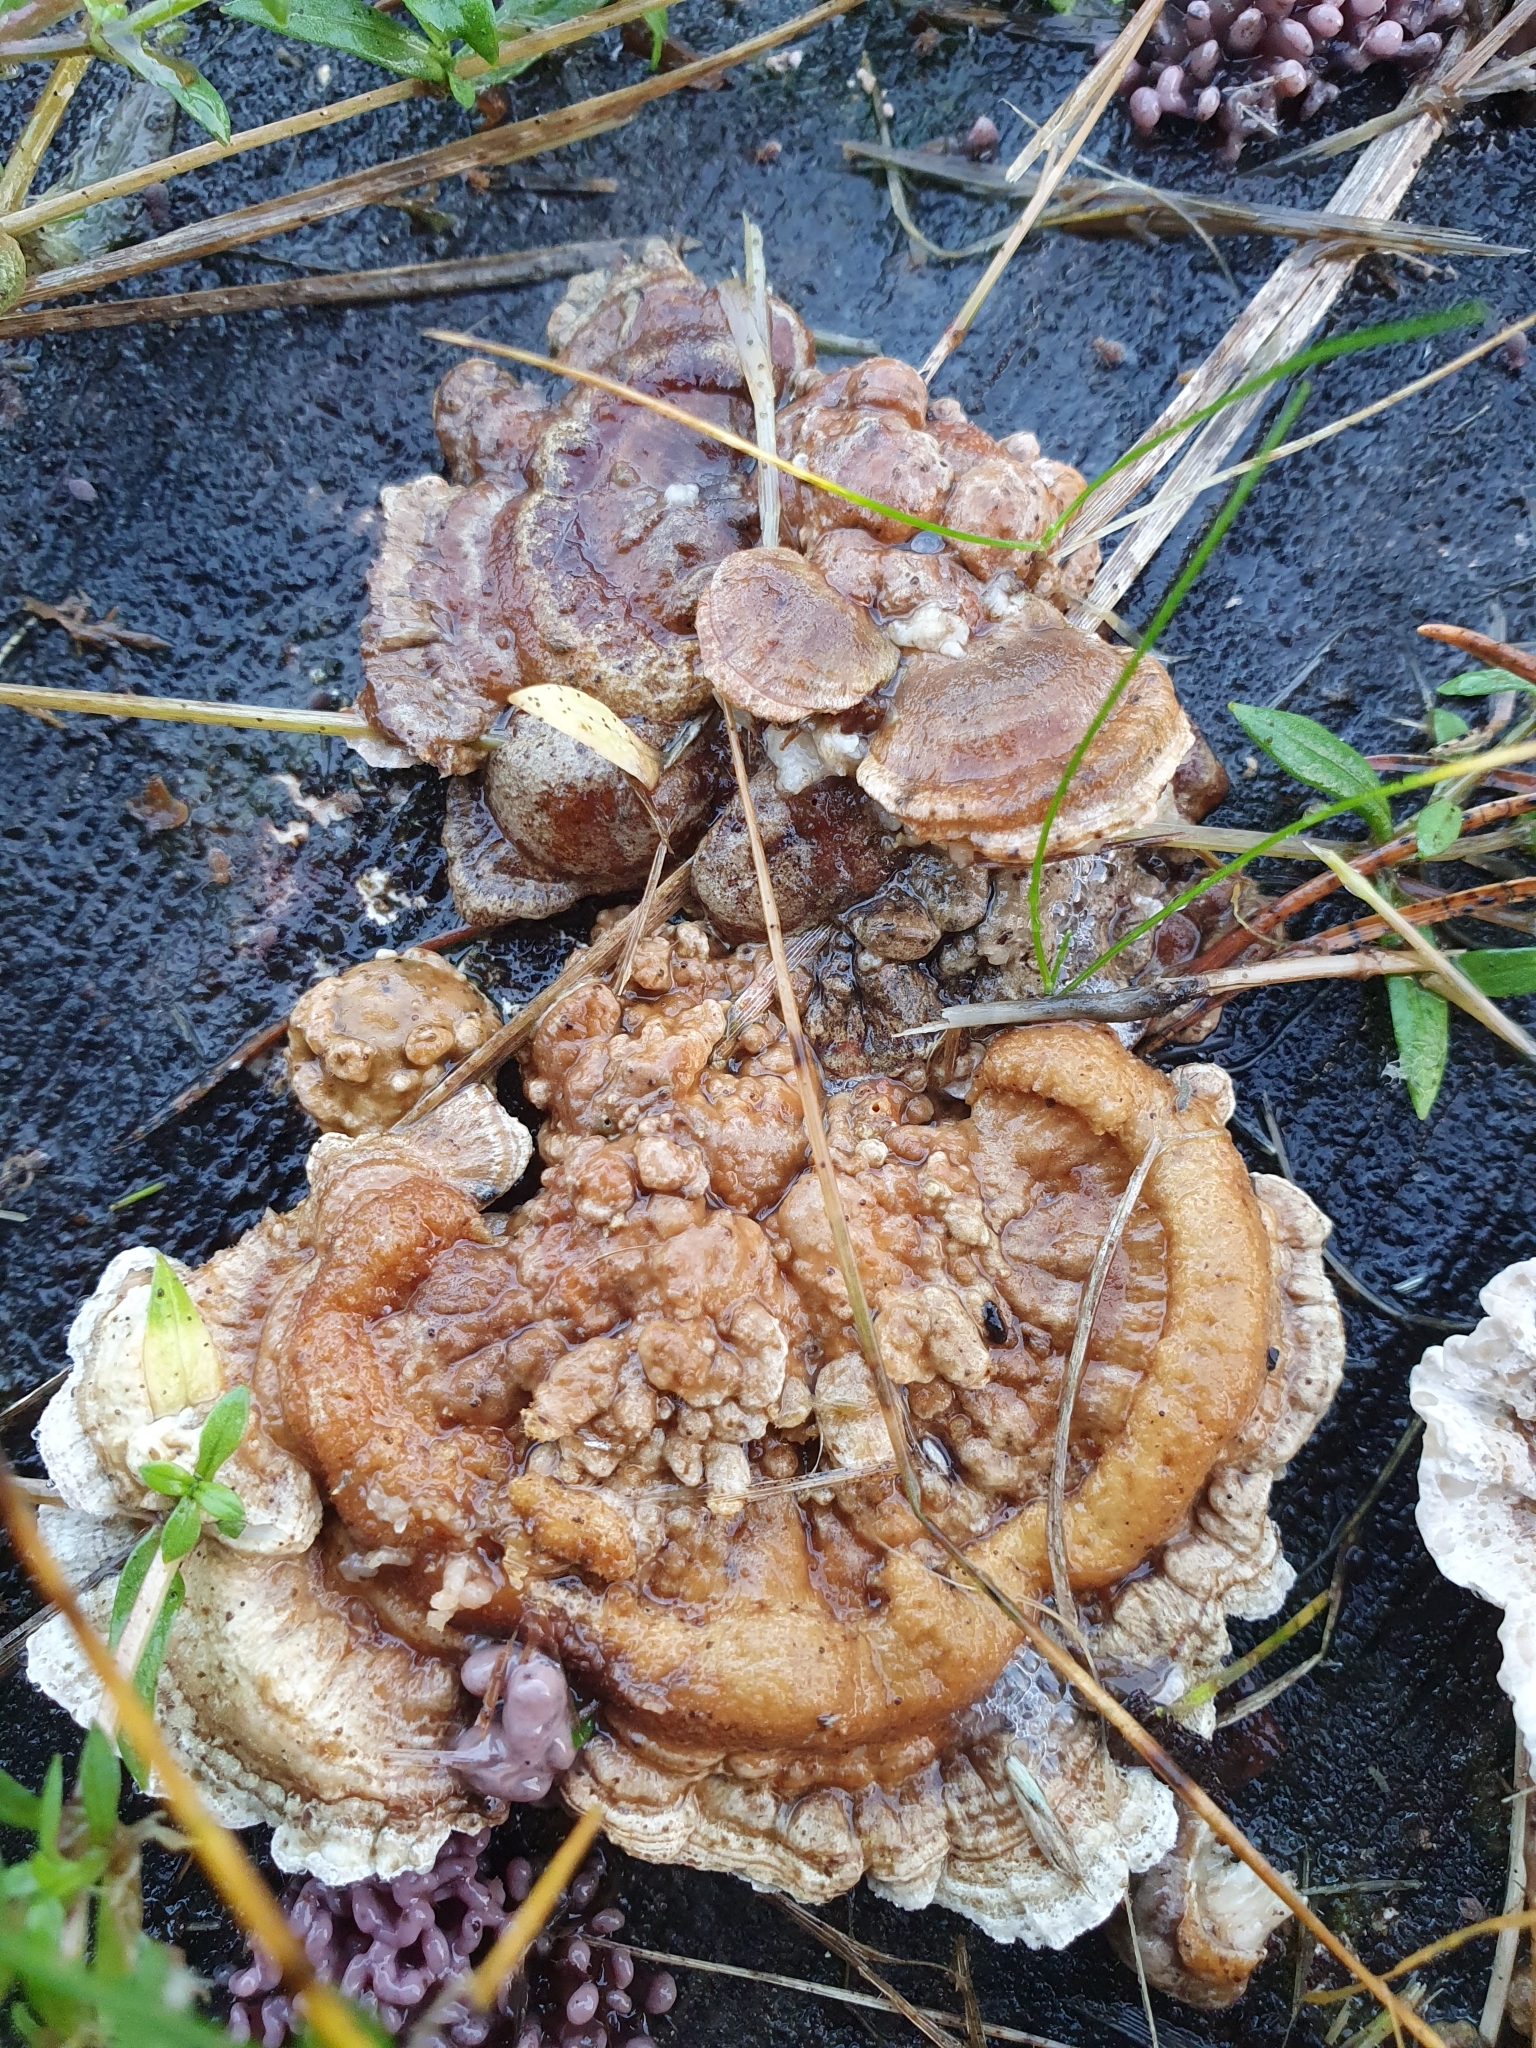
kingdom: Fungi
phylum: Basidiomycota
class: Agaricomycetes
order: Polyporales
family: Polyporaceae
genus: Trametes
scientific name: Trametes ochracea
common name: Ochre bracket
